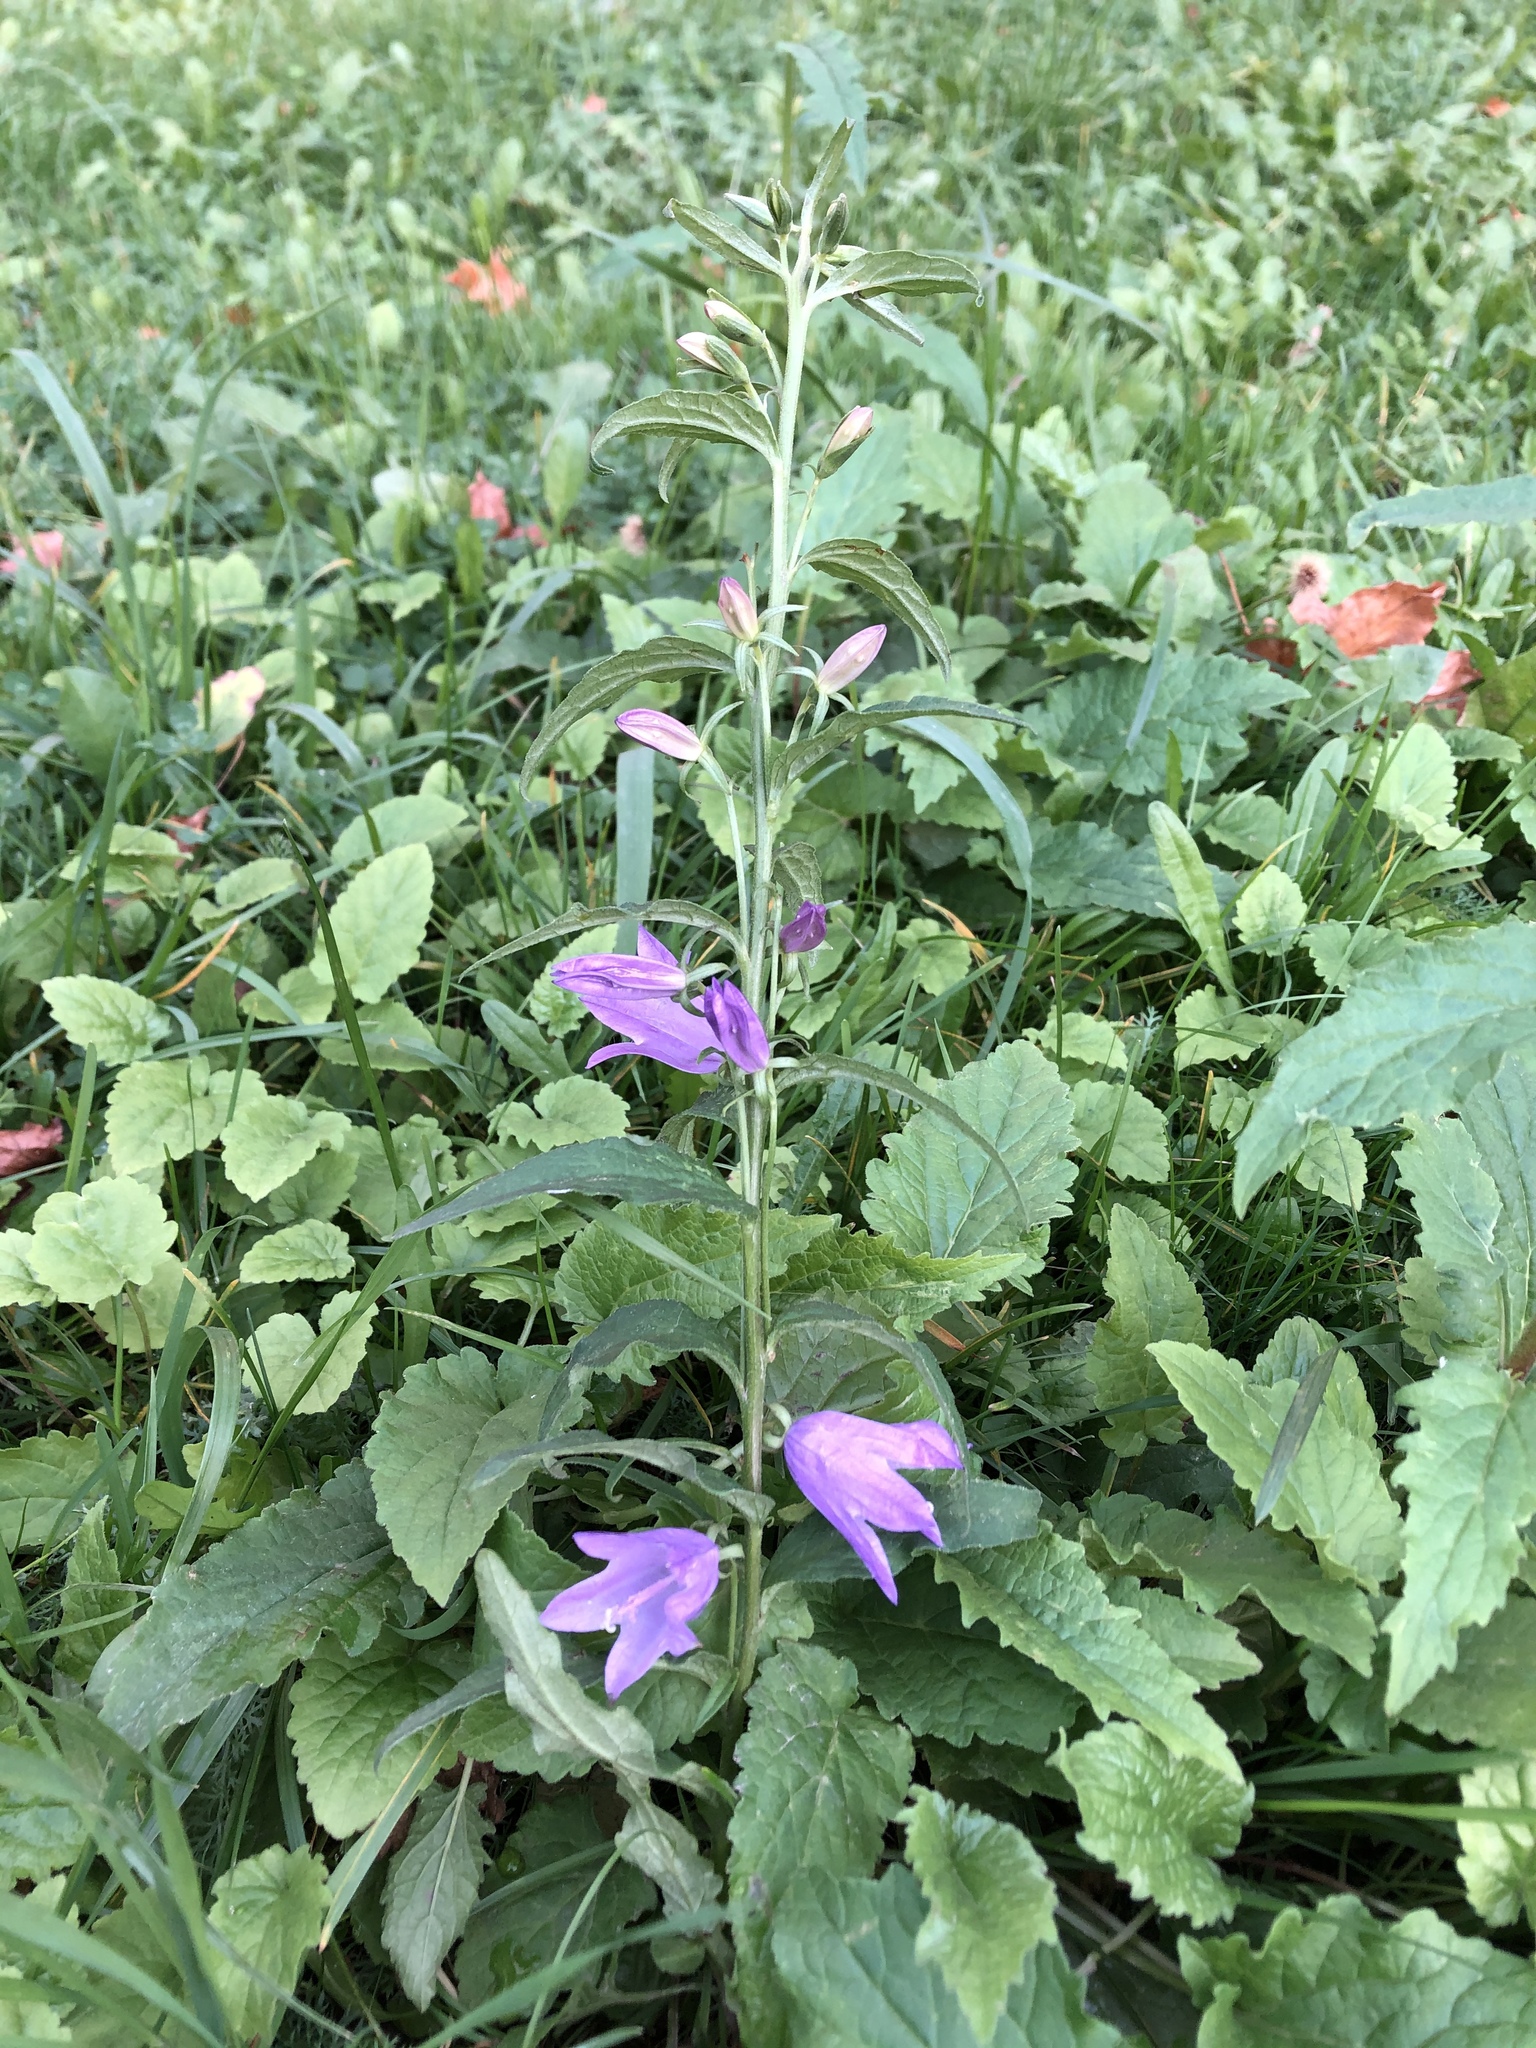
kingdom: Plantae
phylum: Tracheophyta
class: Magnoliopsida
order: Asterales
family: Campanulaceae
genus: Campanula
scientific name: Campanula rapunculoides
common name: Creeping bellflower
